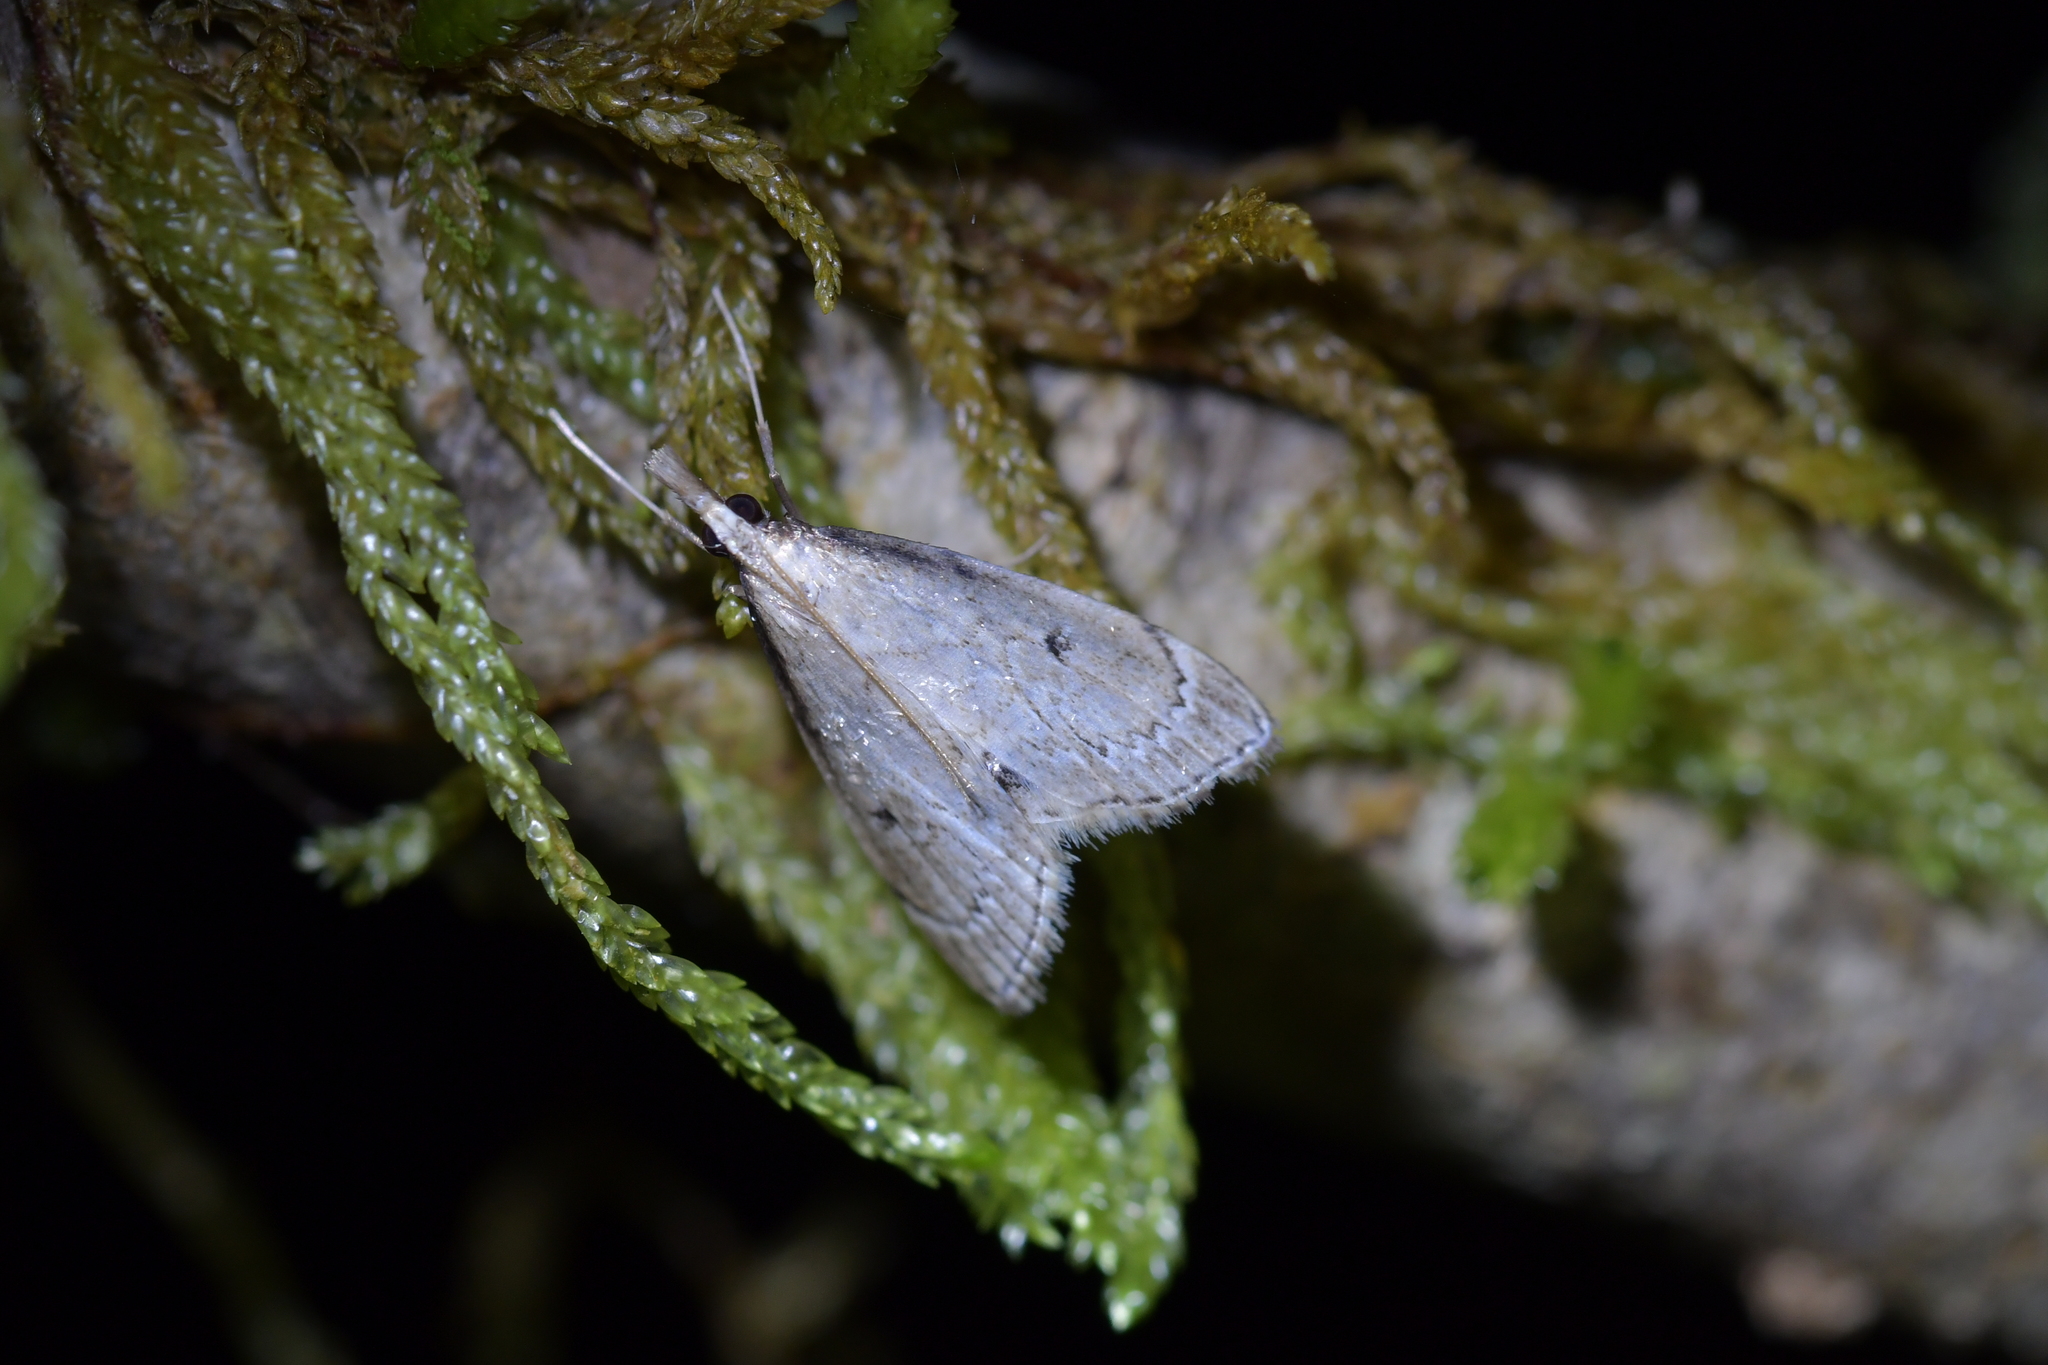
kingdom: Animalia
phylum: Arthropoda
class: Insecta
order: Lepidoptera
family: Crambidae
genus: Clepsicosma
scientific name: Clepsicosma iridia
